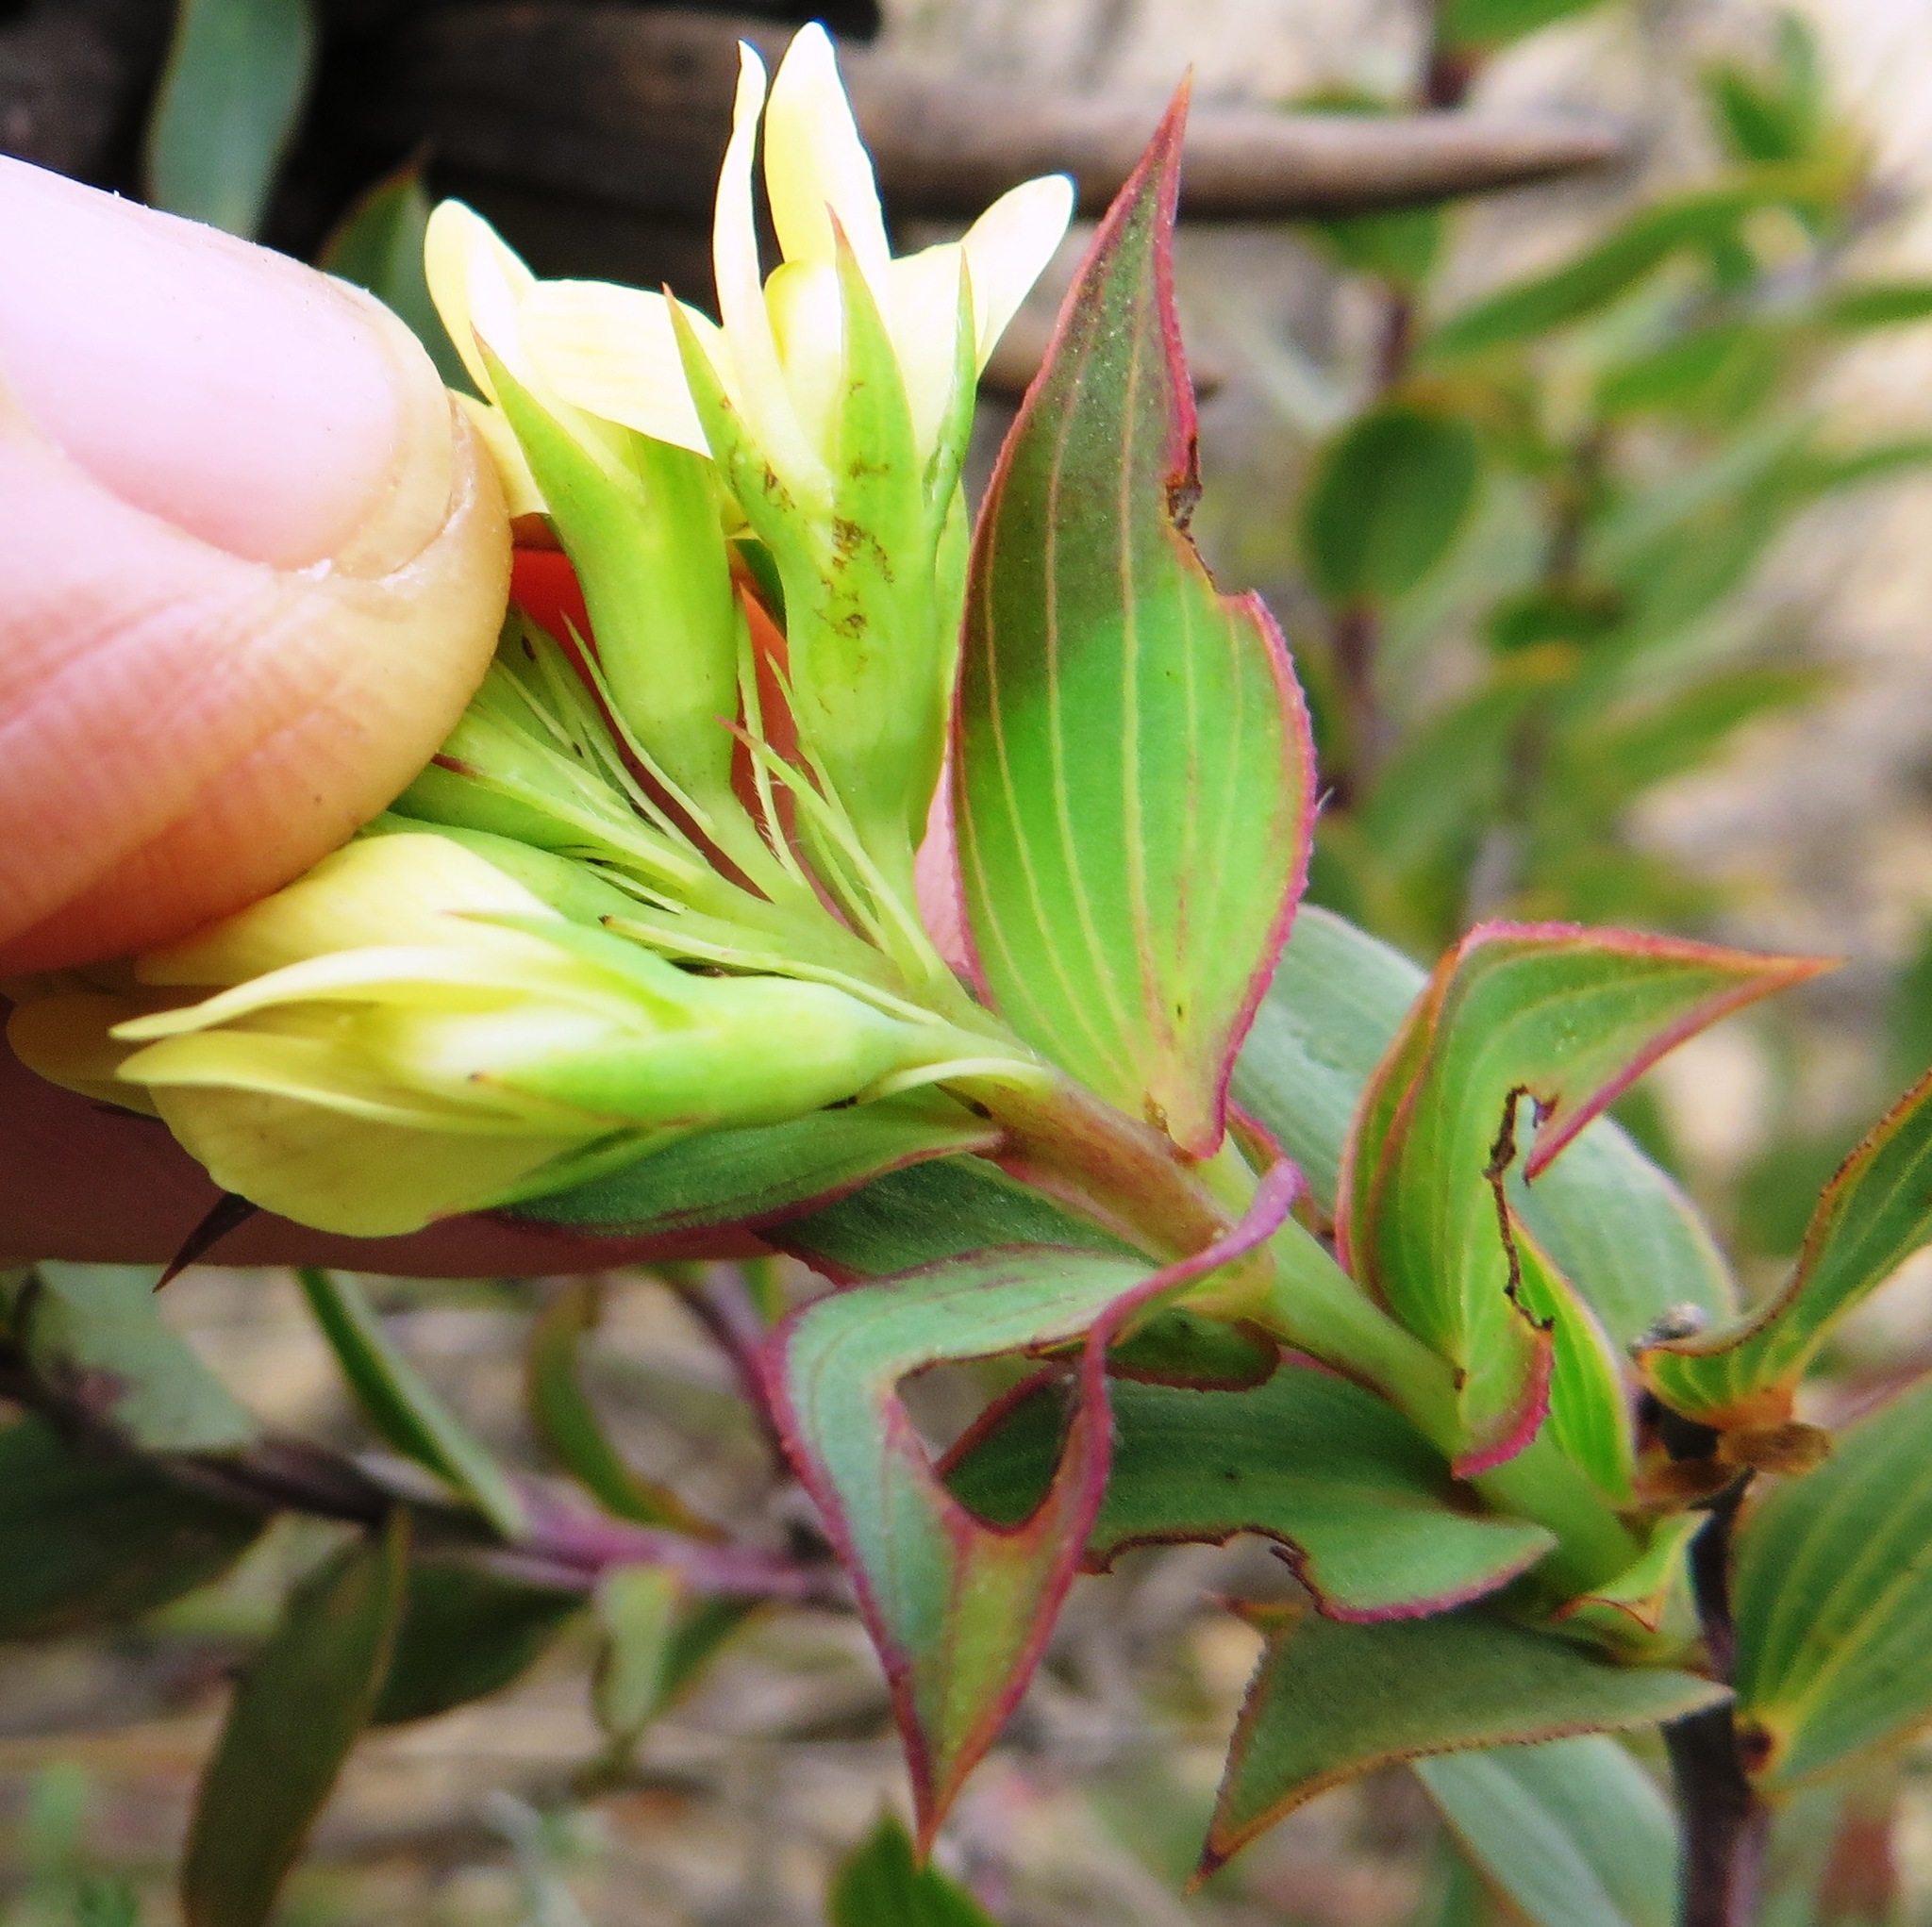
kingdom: Plantae
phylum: Tracheophyta
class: Magnoliopsida
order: Fabales
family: Fabaceae
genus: Aspalathus
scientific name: Aspalathus crenata
